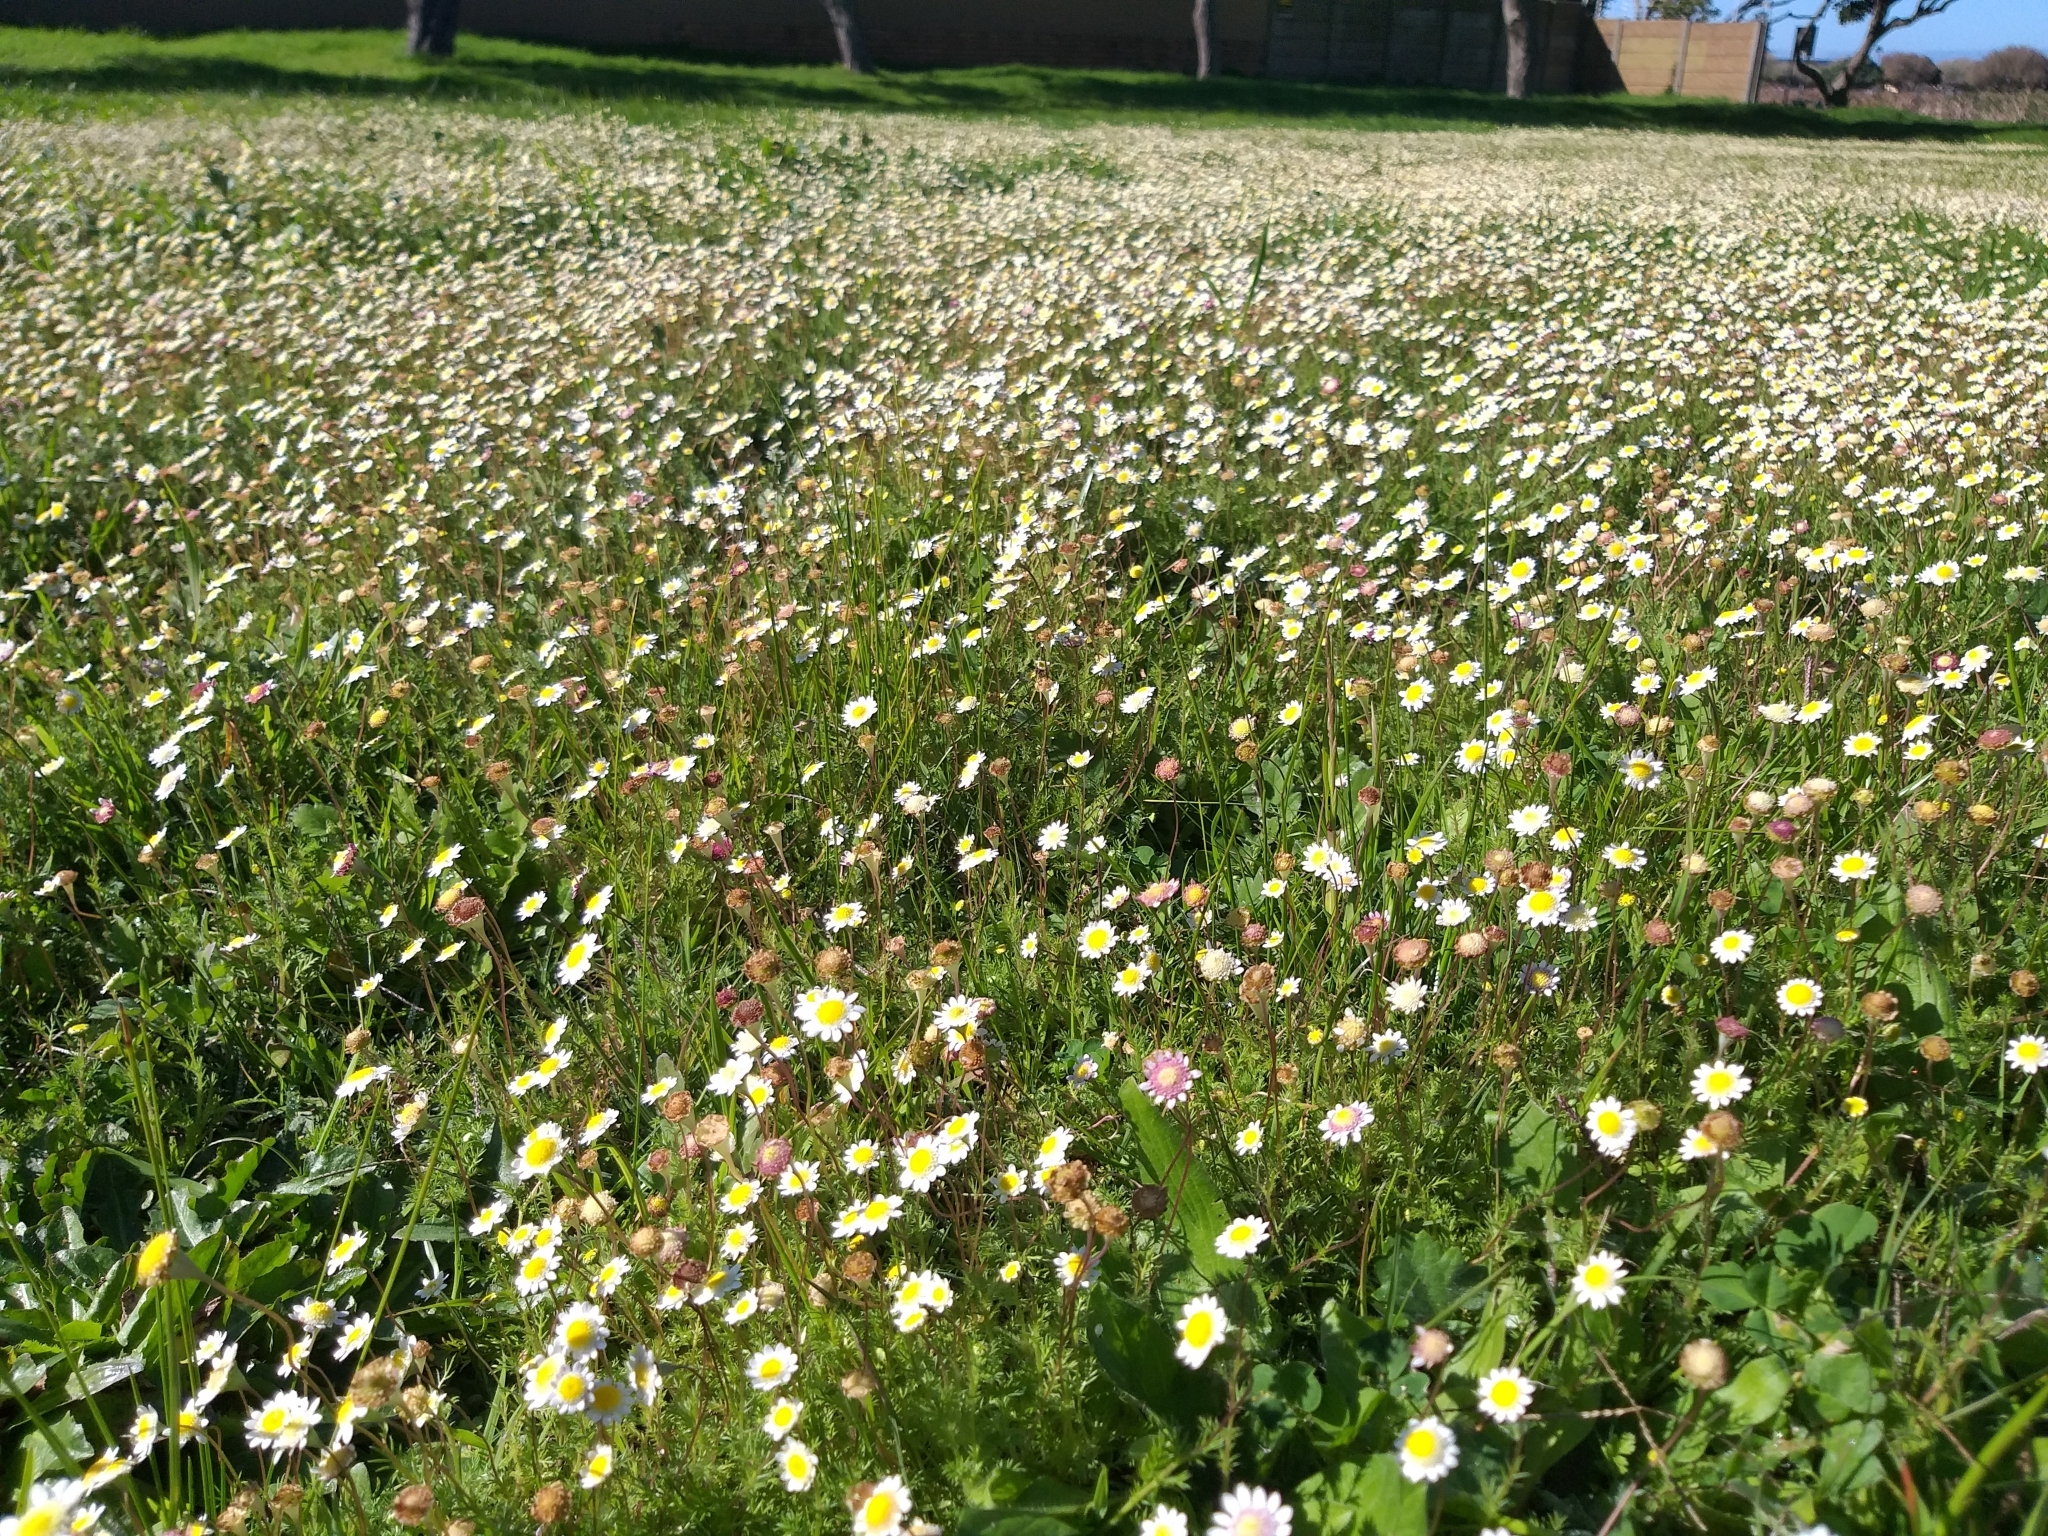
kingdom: Plantae
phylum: Tracheophyta
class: Magnoliopsida
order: Asterales
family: Asteraceae
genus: Cotula
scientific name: Cotula turbinata
